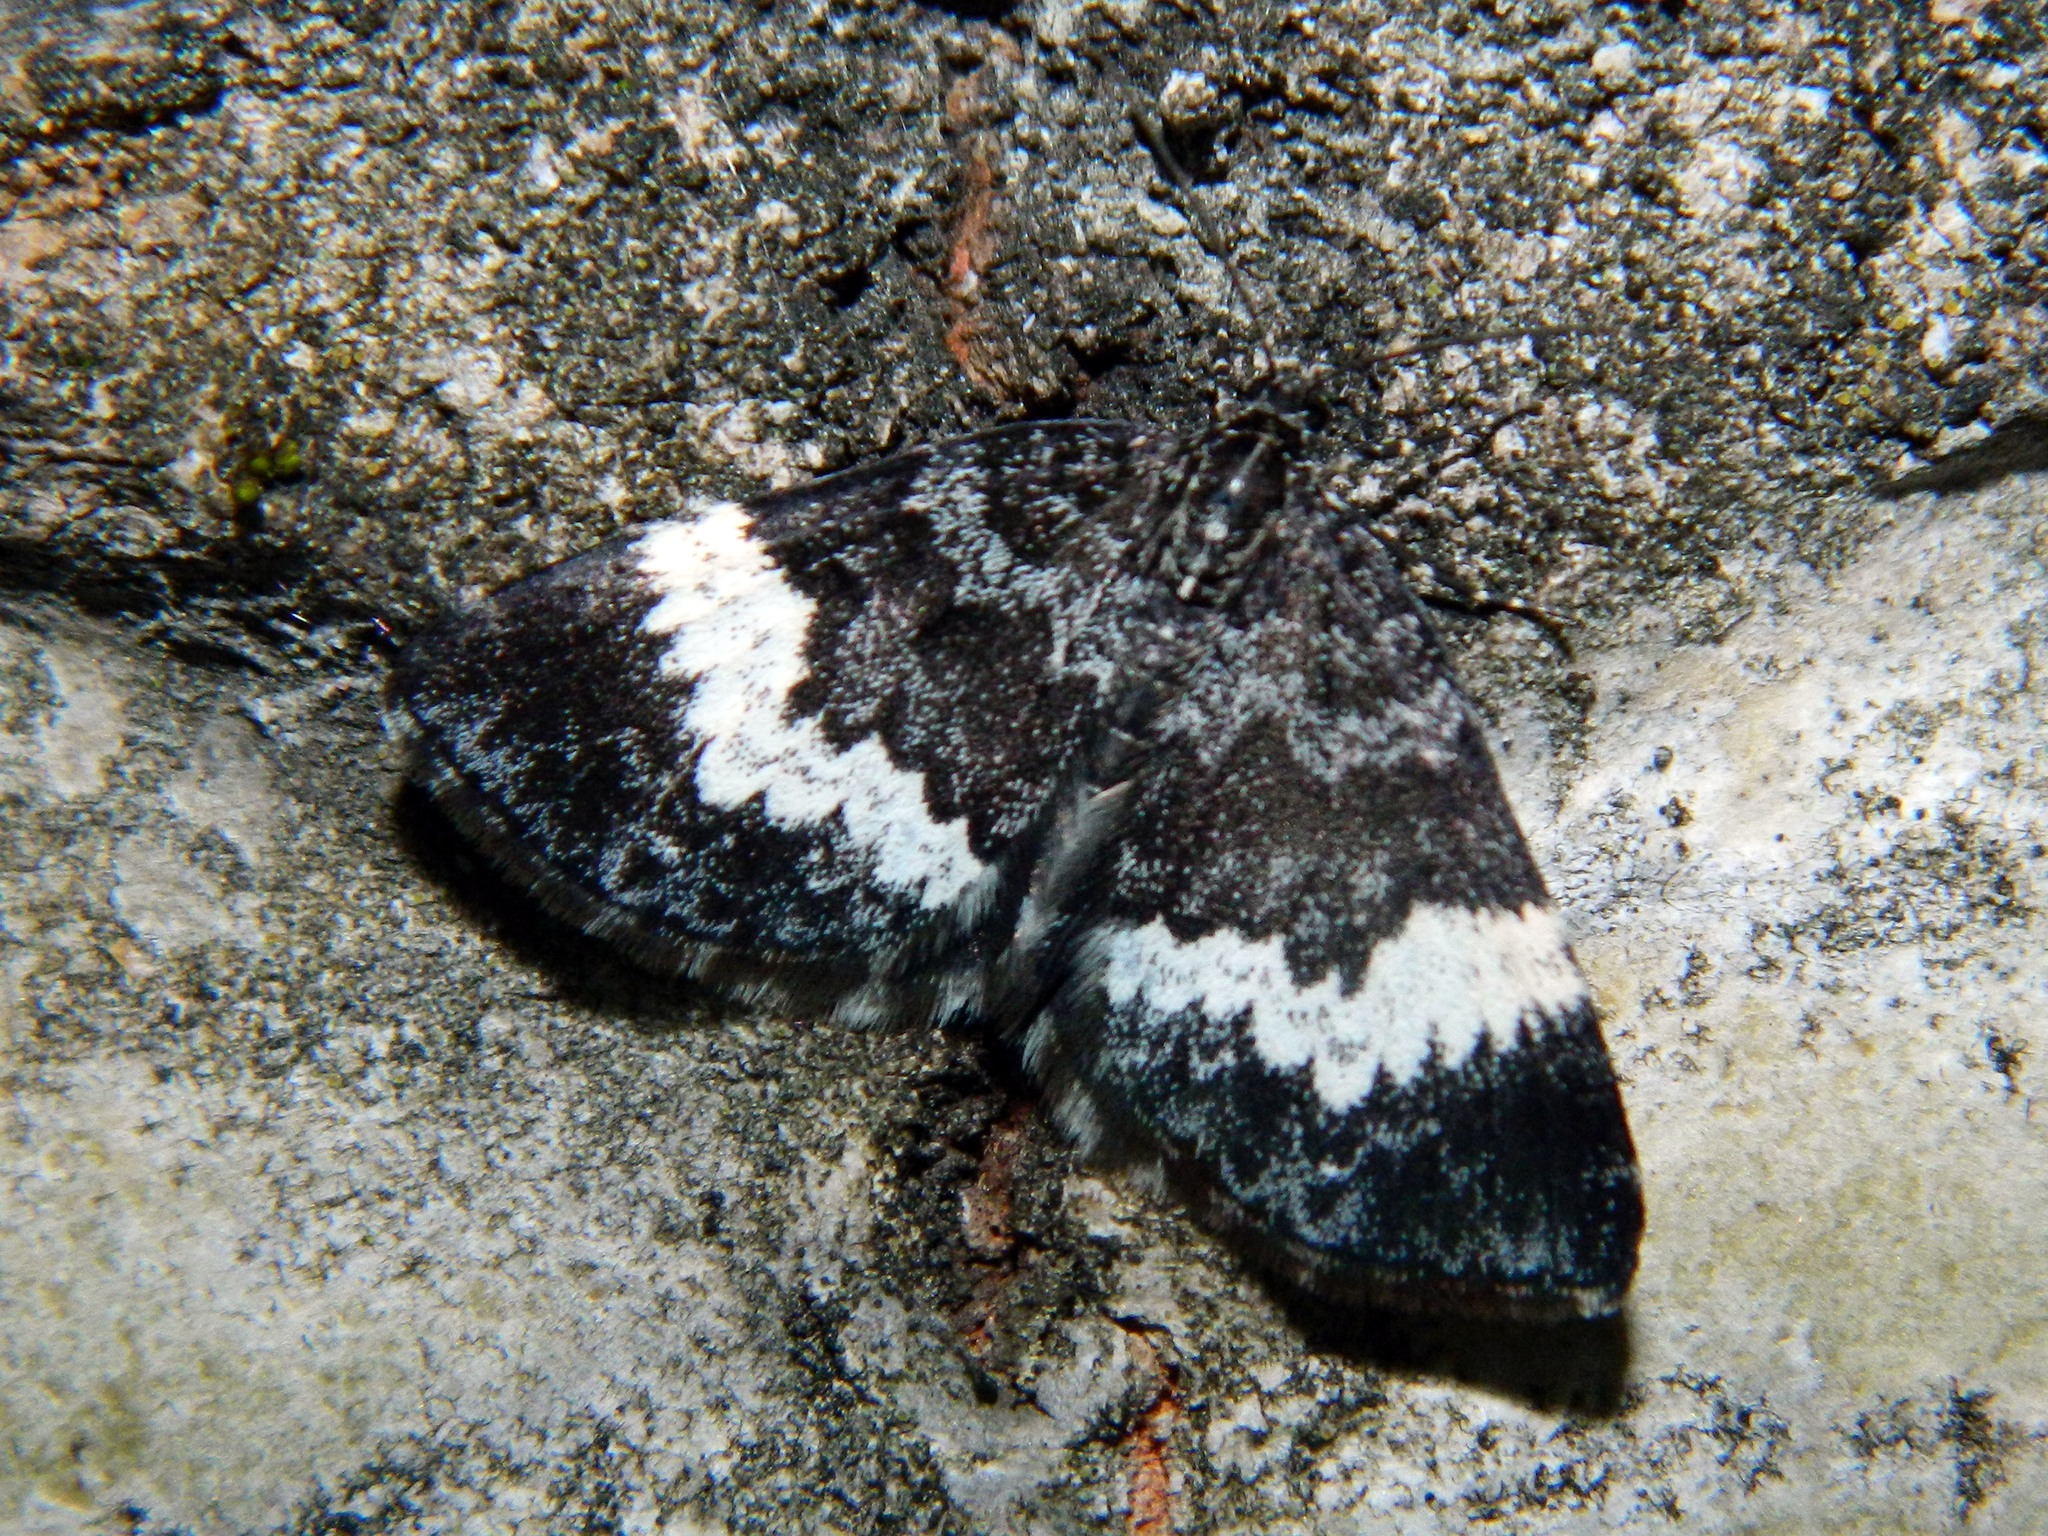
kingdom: Animalia
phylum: Arthropoda
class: Insecta
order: Lepidoptera
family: Geometridae
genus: Spargania
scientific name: Spargania luctuata
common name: White-banded carpet
